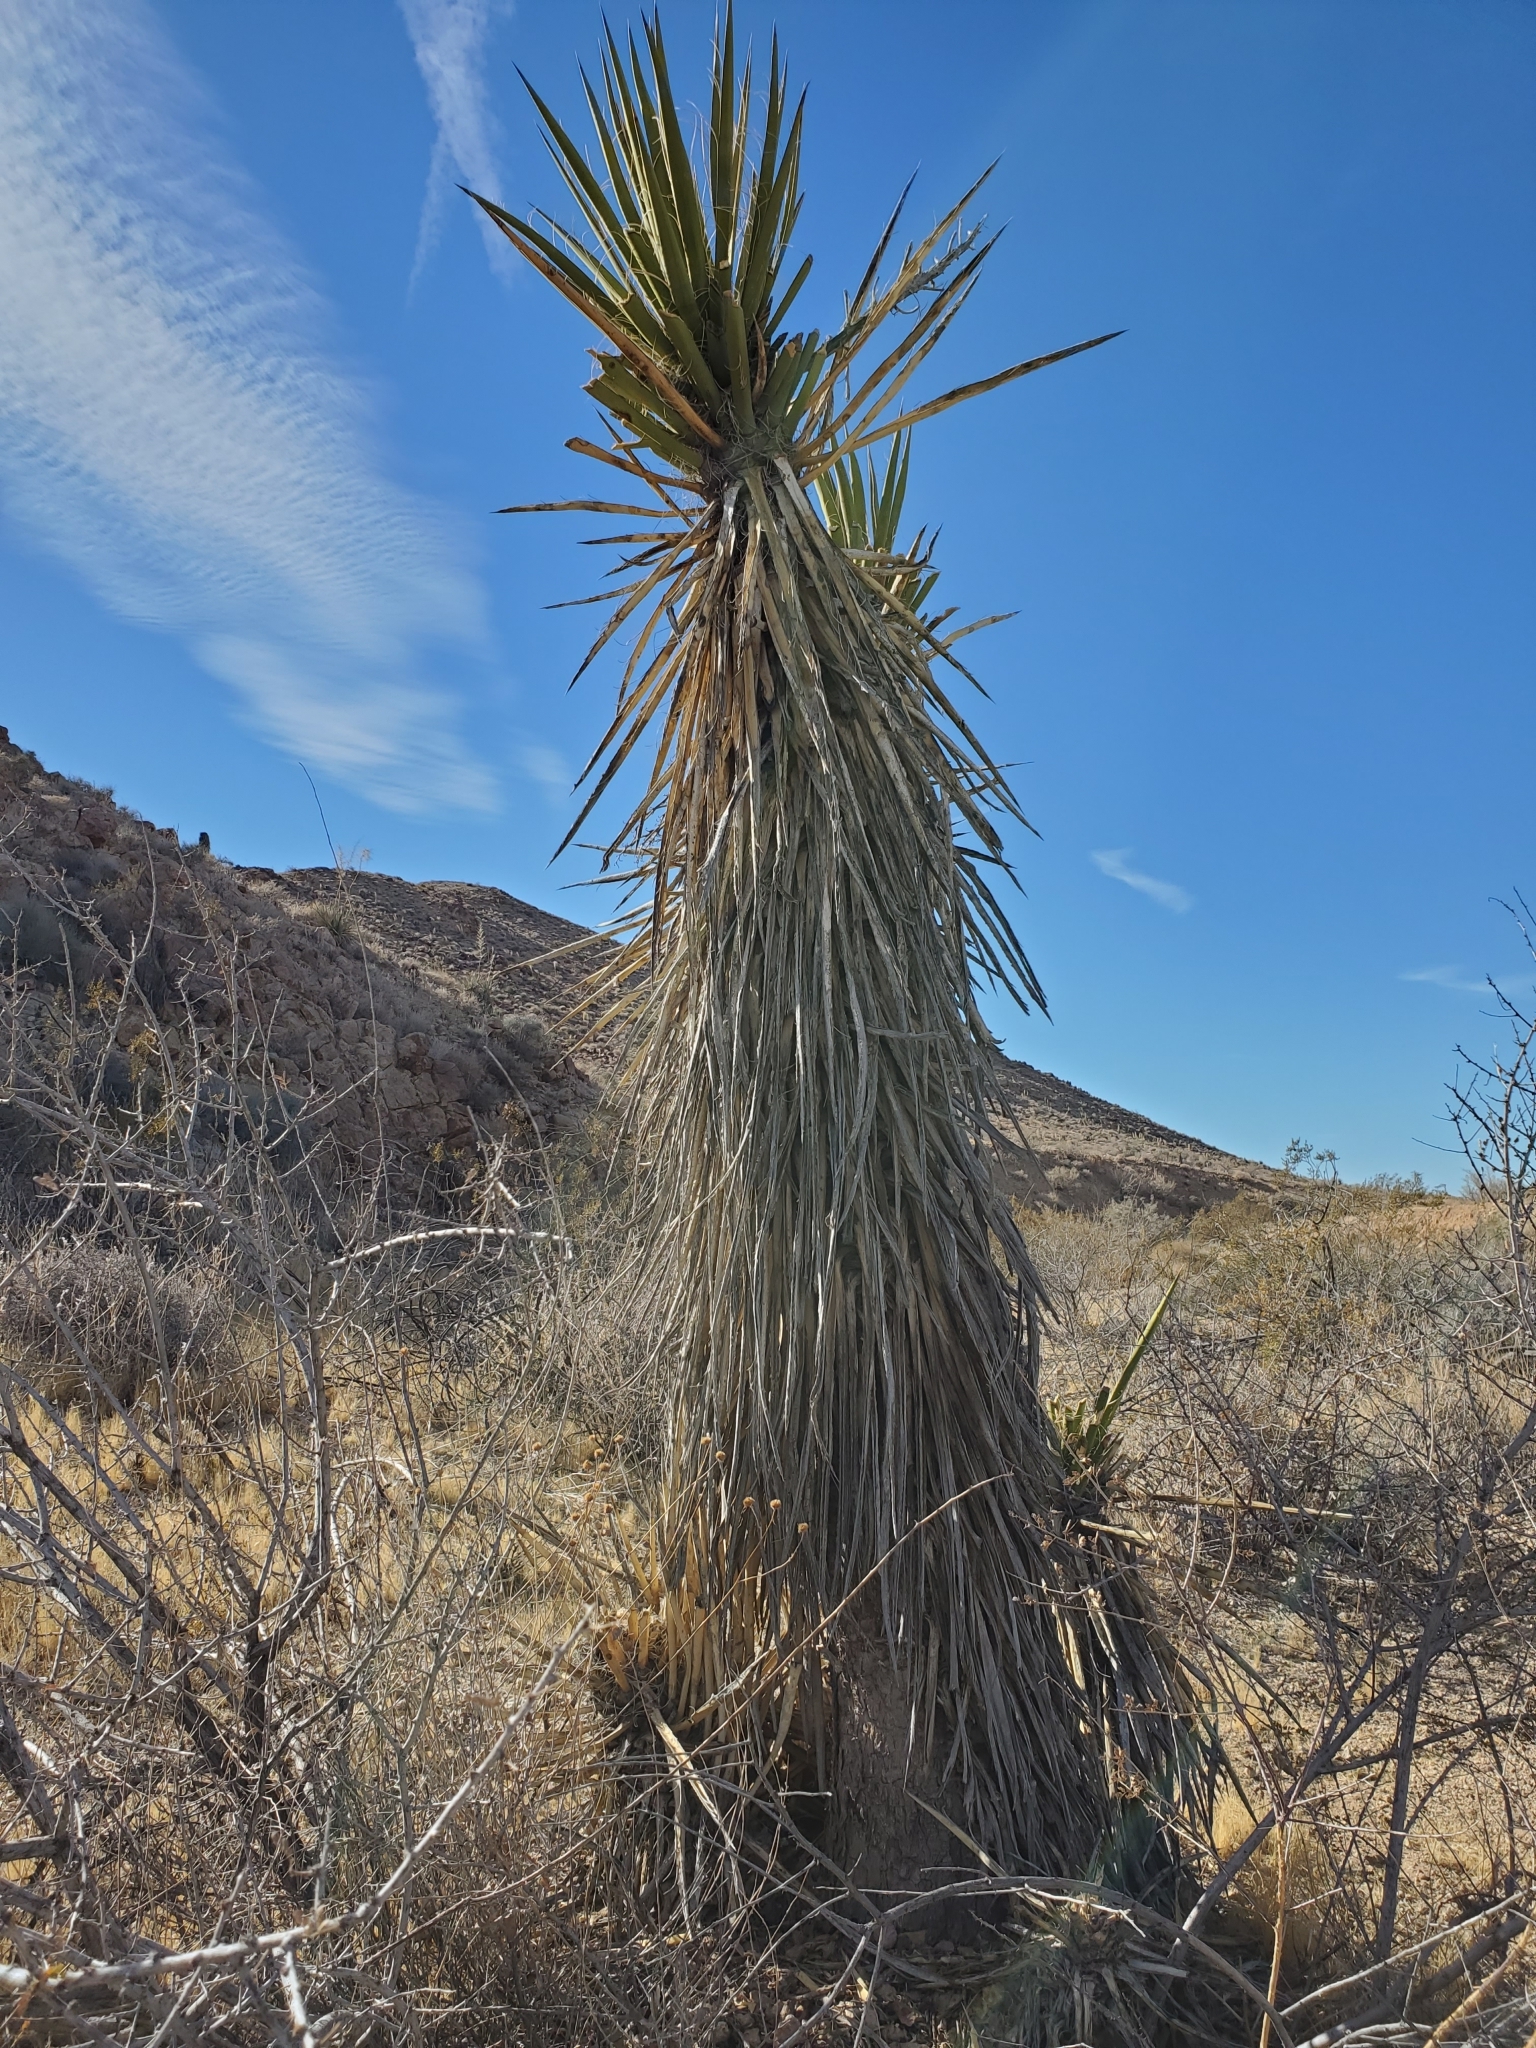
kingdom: Plantae
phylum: Tracheophyta
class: Liliopsida
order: Asparagales
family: Asparagaceae
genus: Yucca
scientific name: Yucca schidigera
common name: Mojave yucca
